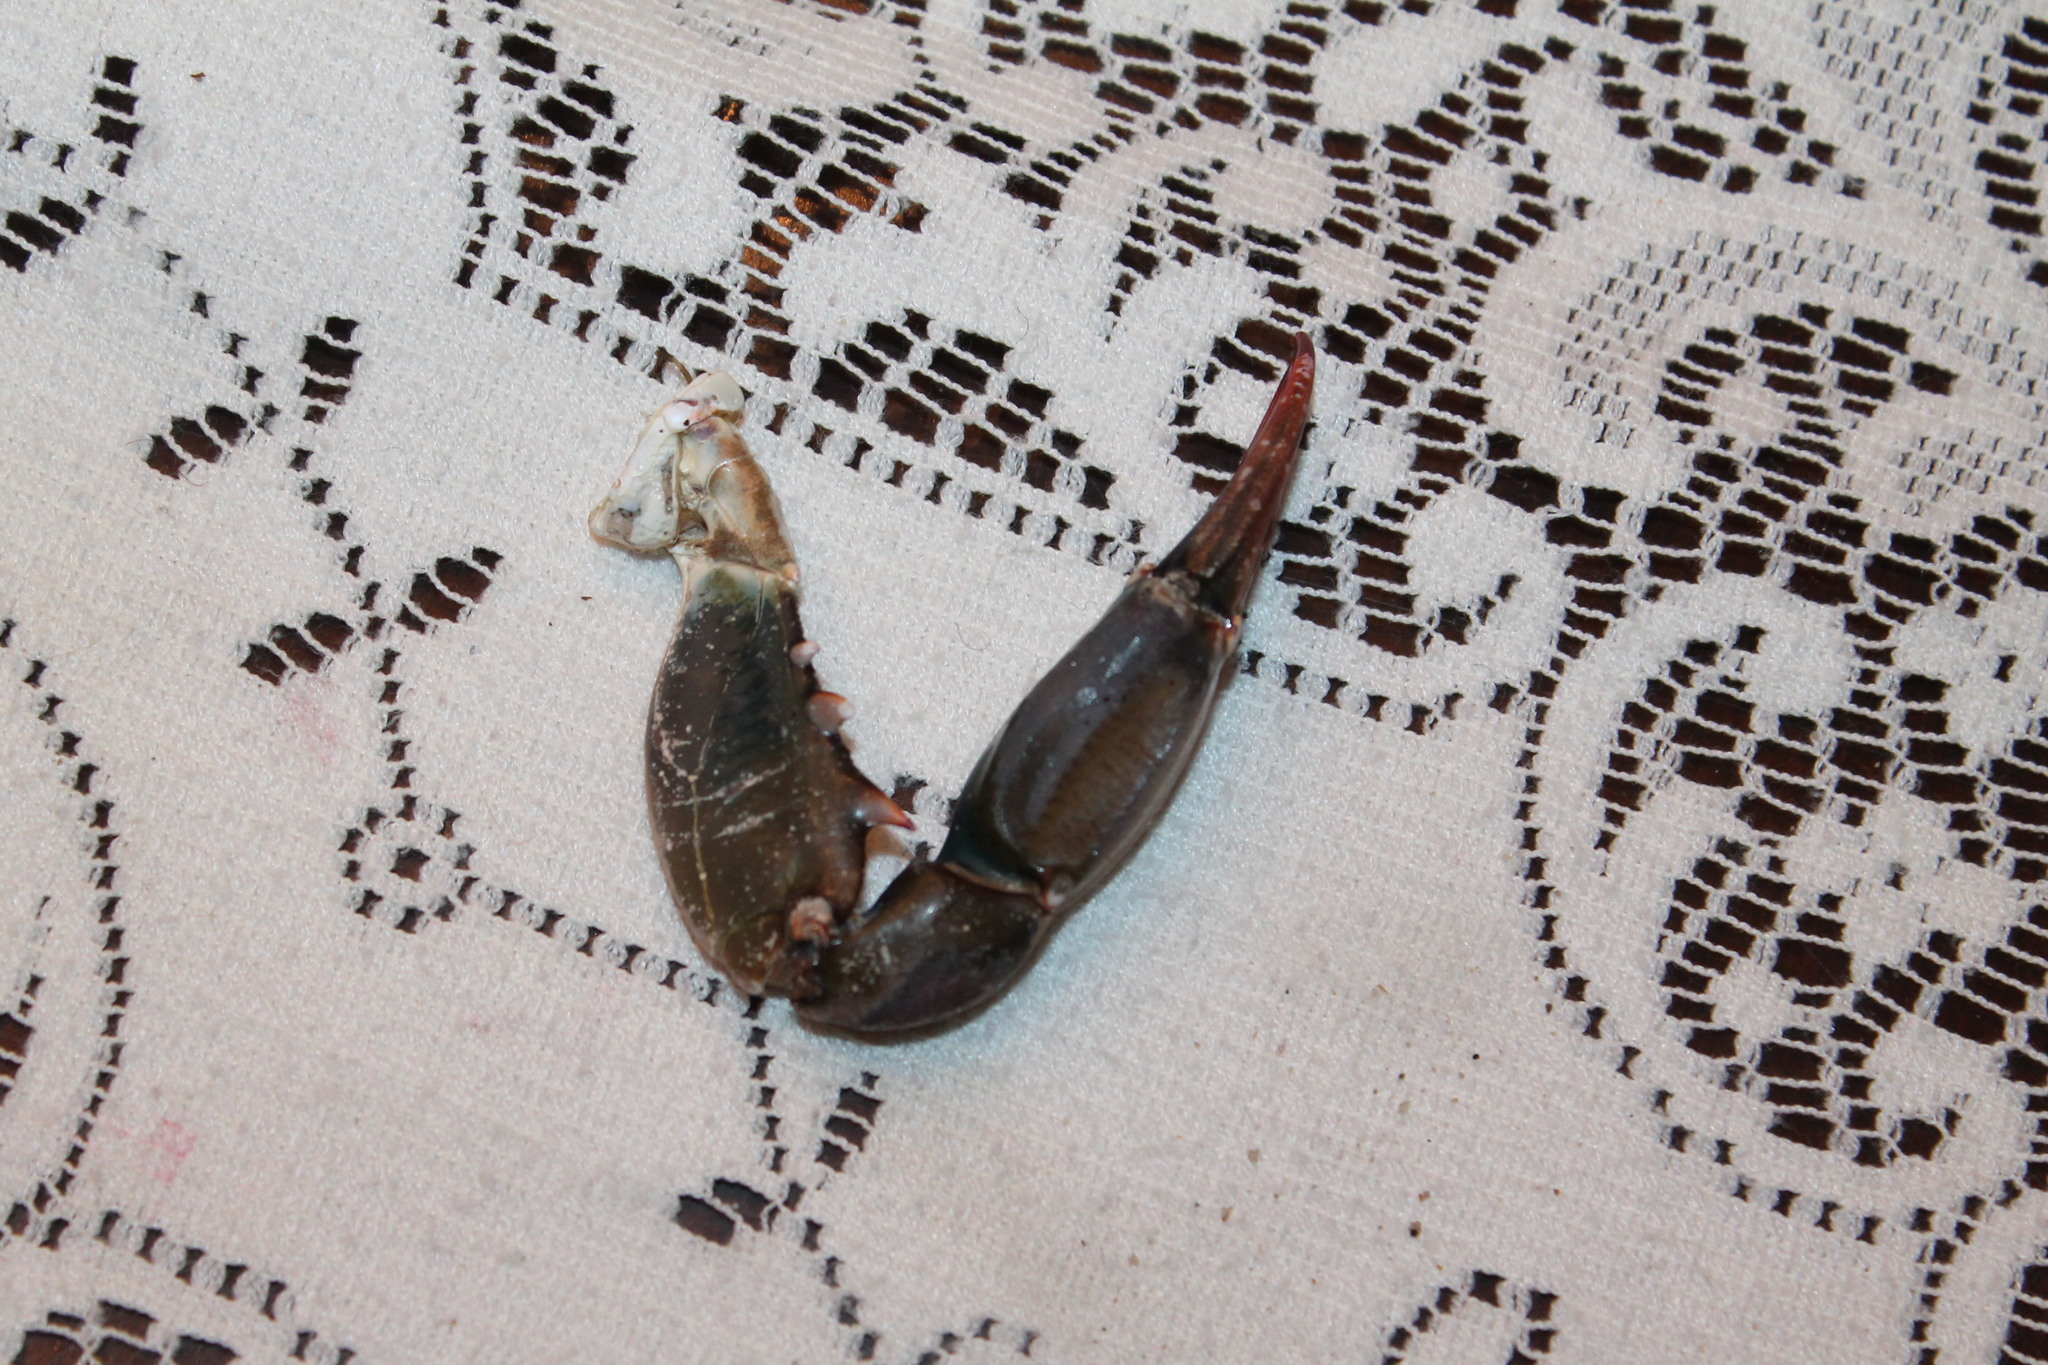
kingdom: Animalia
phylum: Arthropoda
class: Malacostraca
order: Decapoda
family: Portunidae
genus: Callinectes
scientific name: Callinectes sapidus
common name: Blue crab
